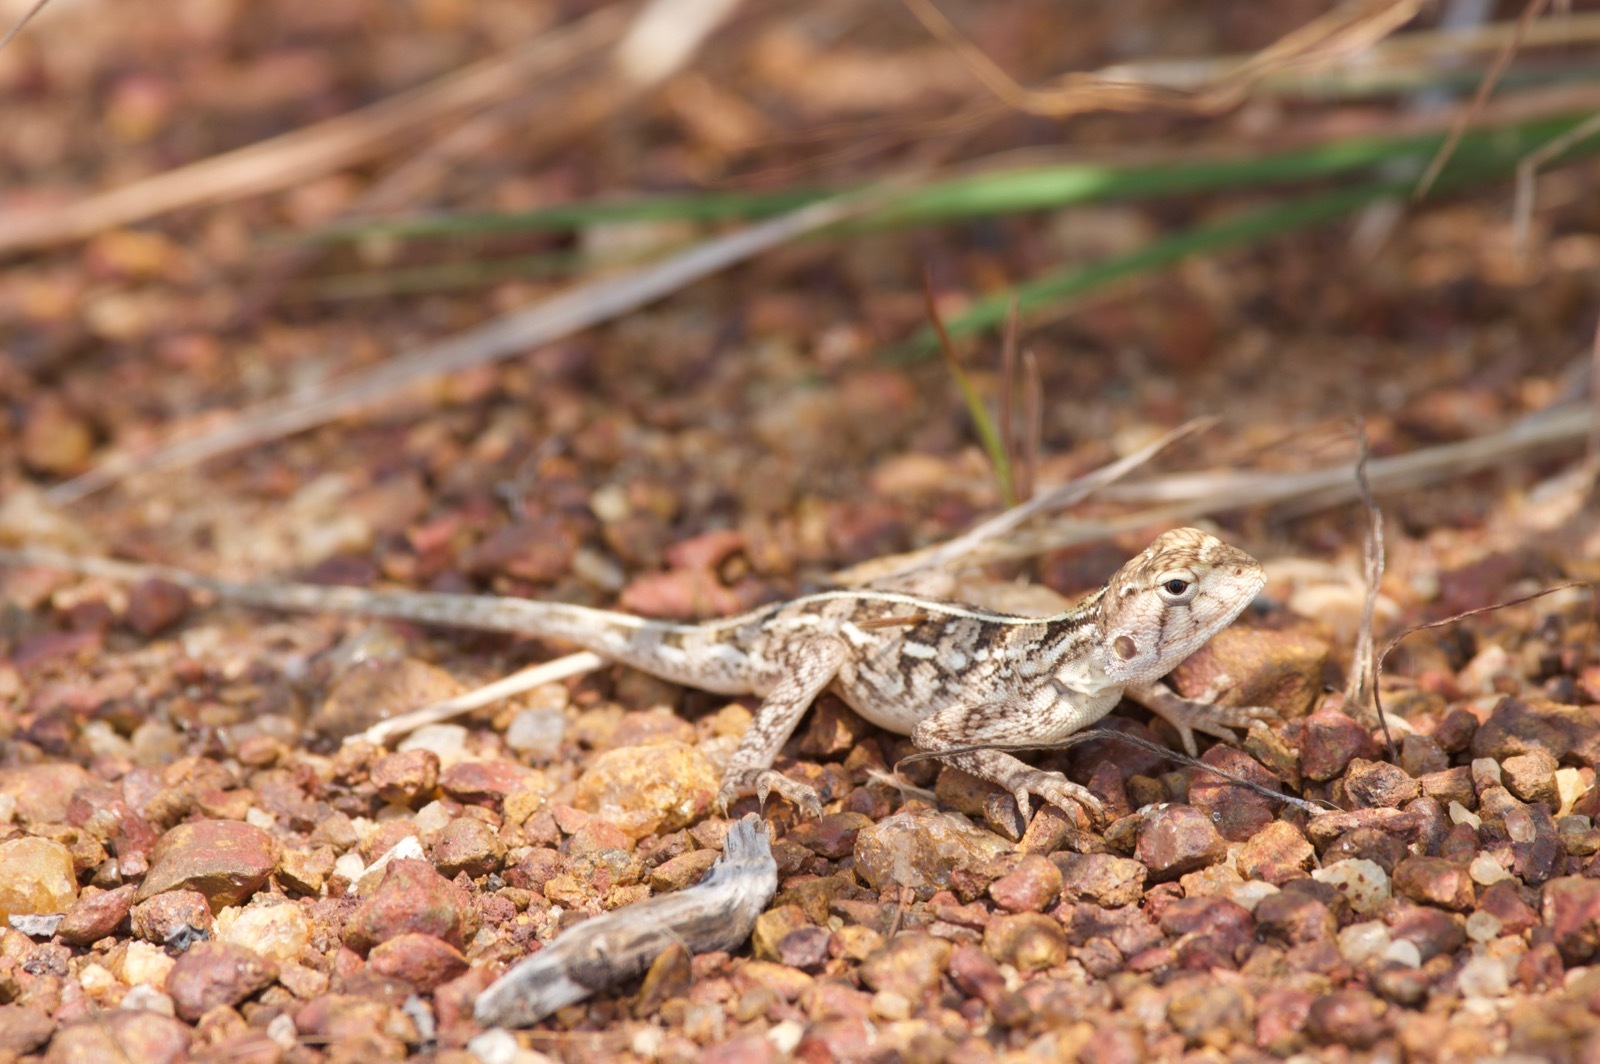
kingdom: Animalia
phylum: Chordata
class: Squamata
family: Agamidae
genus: Agama
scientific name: Agama sankaranica
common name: Senegal agama
